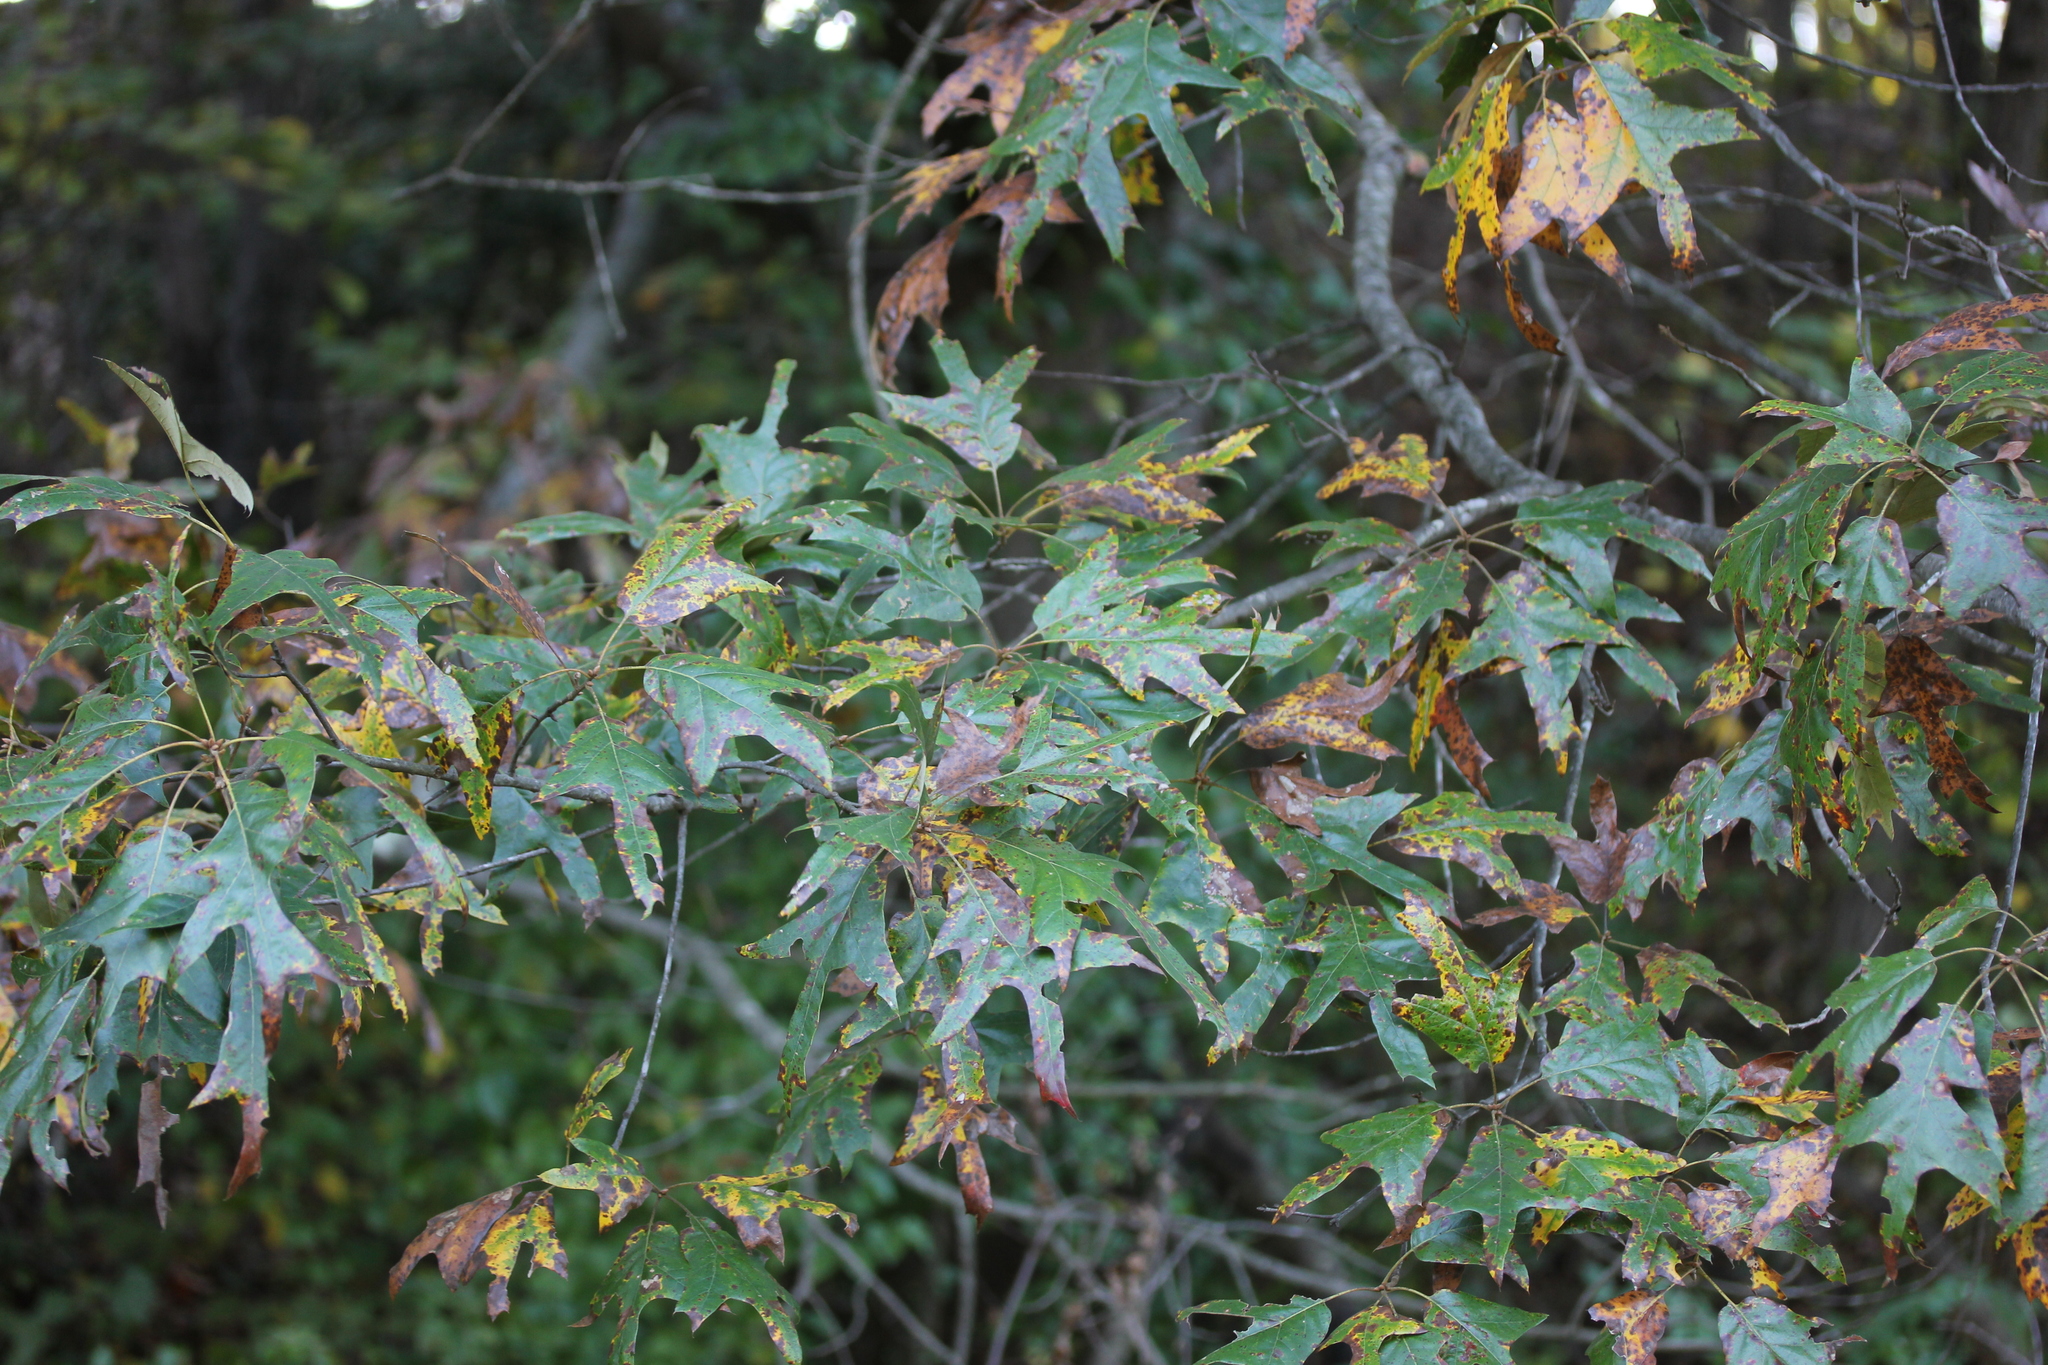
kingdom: Plantae
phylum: Tracheophyta
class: Magnoliopsida
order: Fagales
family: Fagaceae
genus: Quercus
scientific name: Quercus falcata
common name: Southern red oak
